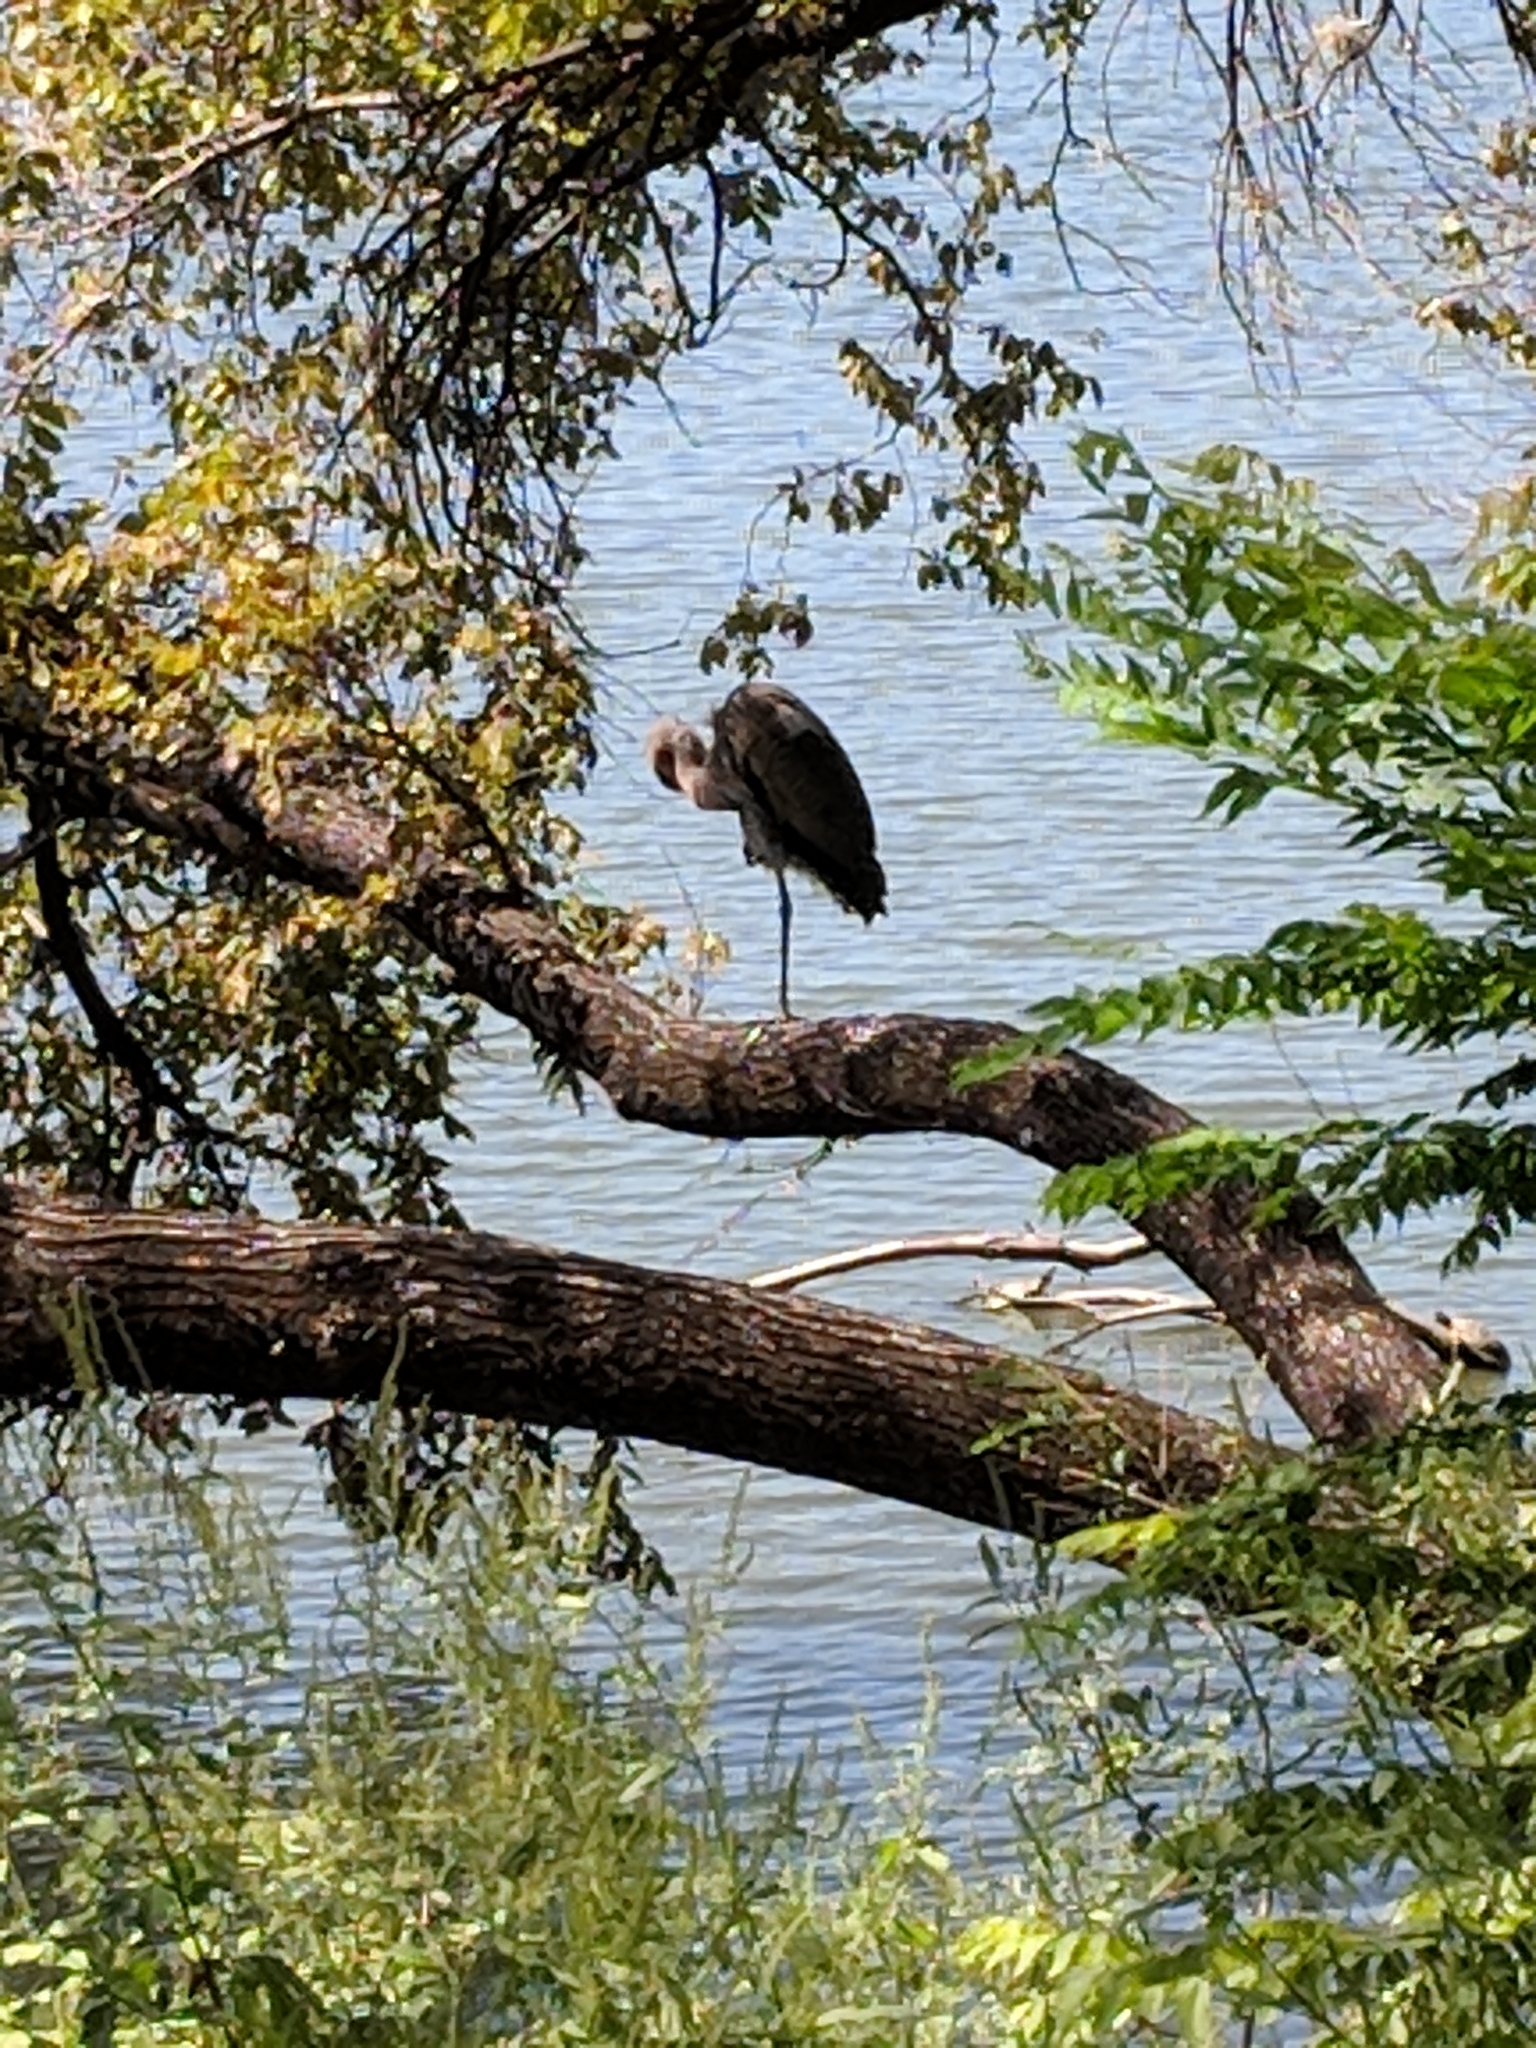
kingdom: Animalia
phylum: Chordata
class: Aves
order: Pelecaniformes
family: Ardeidae
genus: Ardea
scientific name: Ardea herodias
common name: Great blue heron
